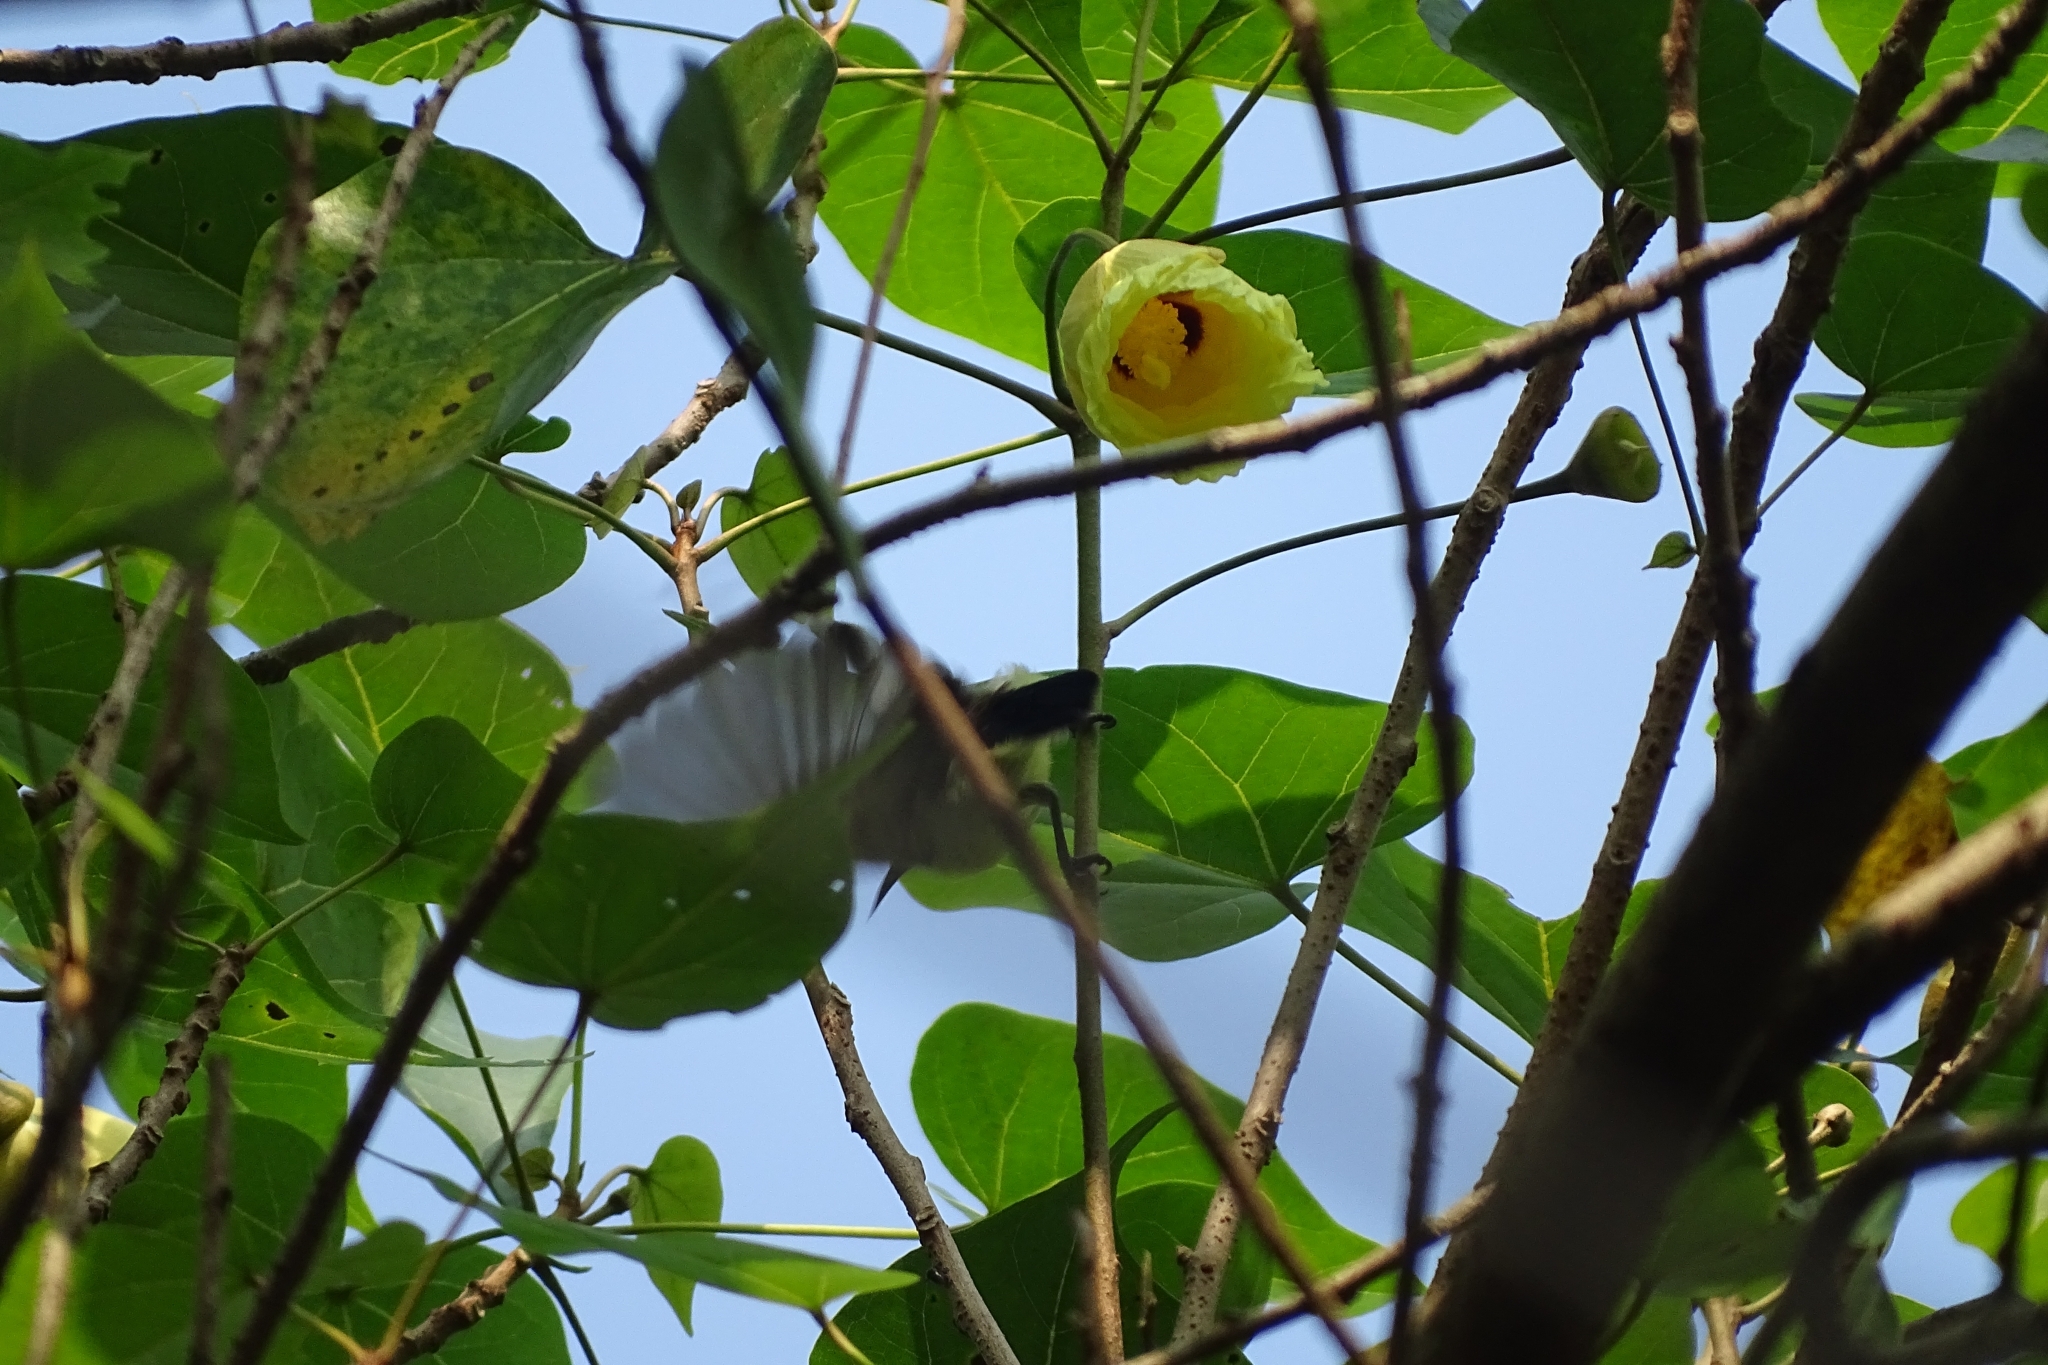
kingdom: Plantae
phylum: Tracheophyta
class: Magnoliopsida
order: Malvales
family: Malvaceae
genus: Thespesia
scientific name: Thespesia populnea
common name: Seaside mahoe
